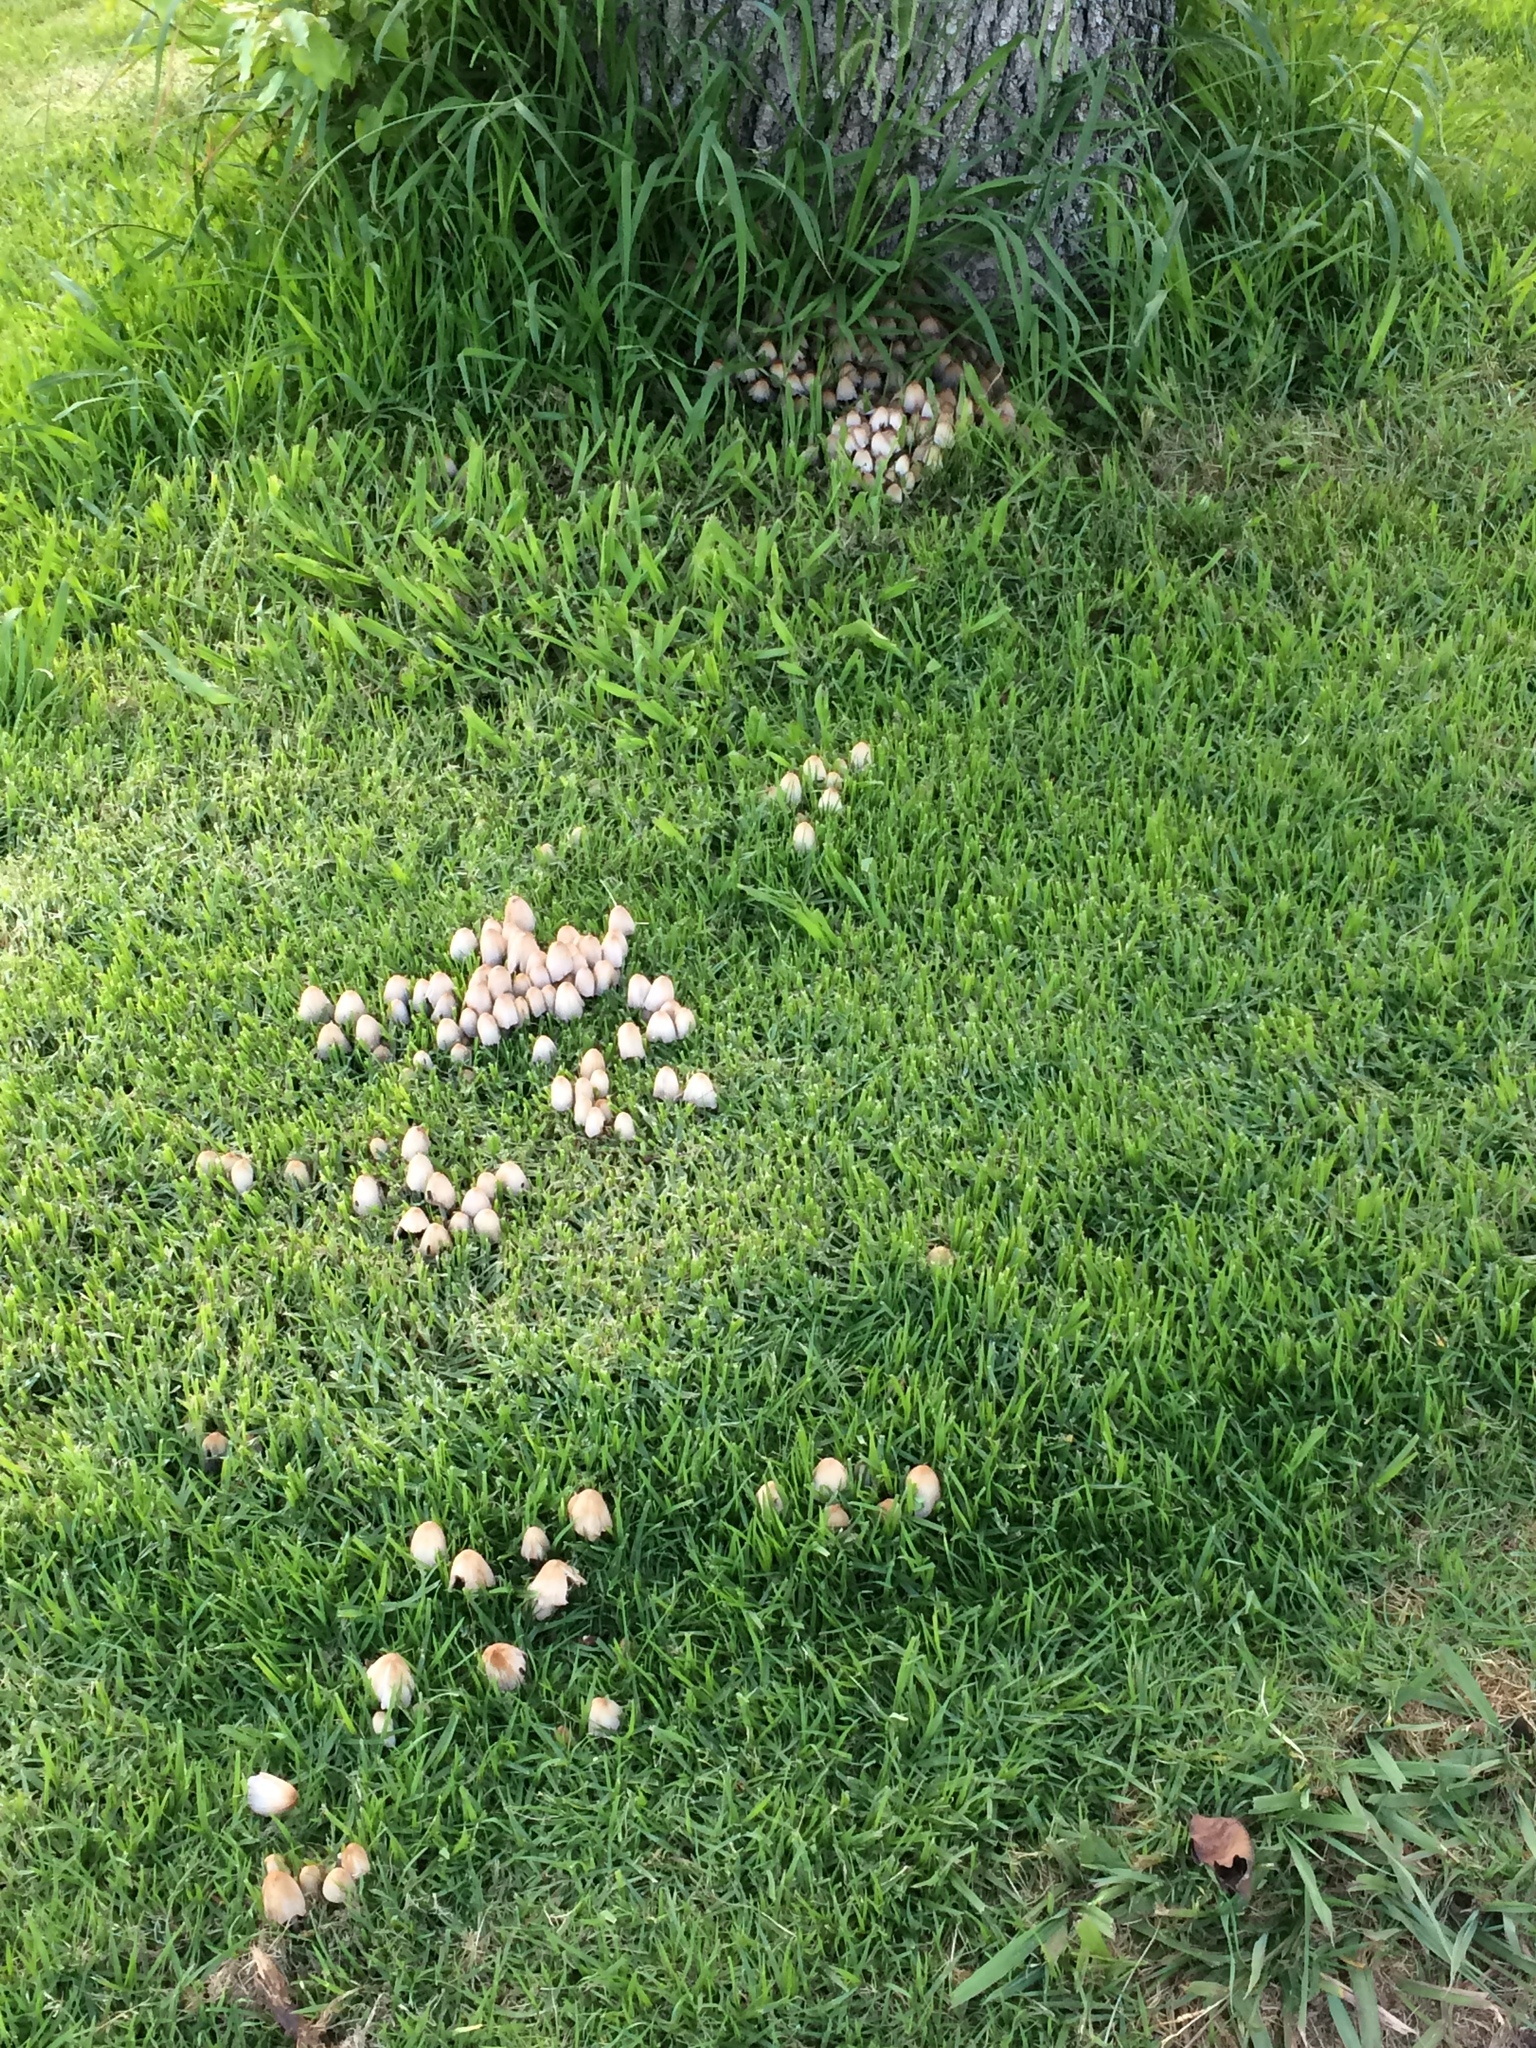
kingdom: Fungi
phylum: Basidiomycota
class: Agaricomycetes
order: Agaricales
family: Psathyrellaceae
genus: Coprinellus
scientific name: Coprinellus micaceus
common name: Glistening ink-cap
